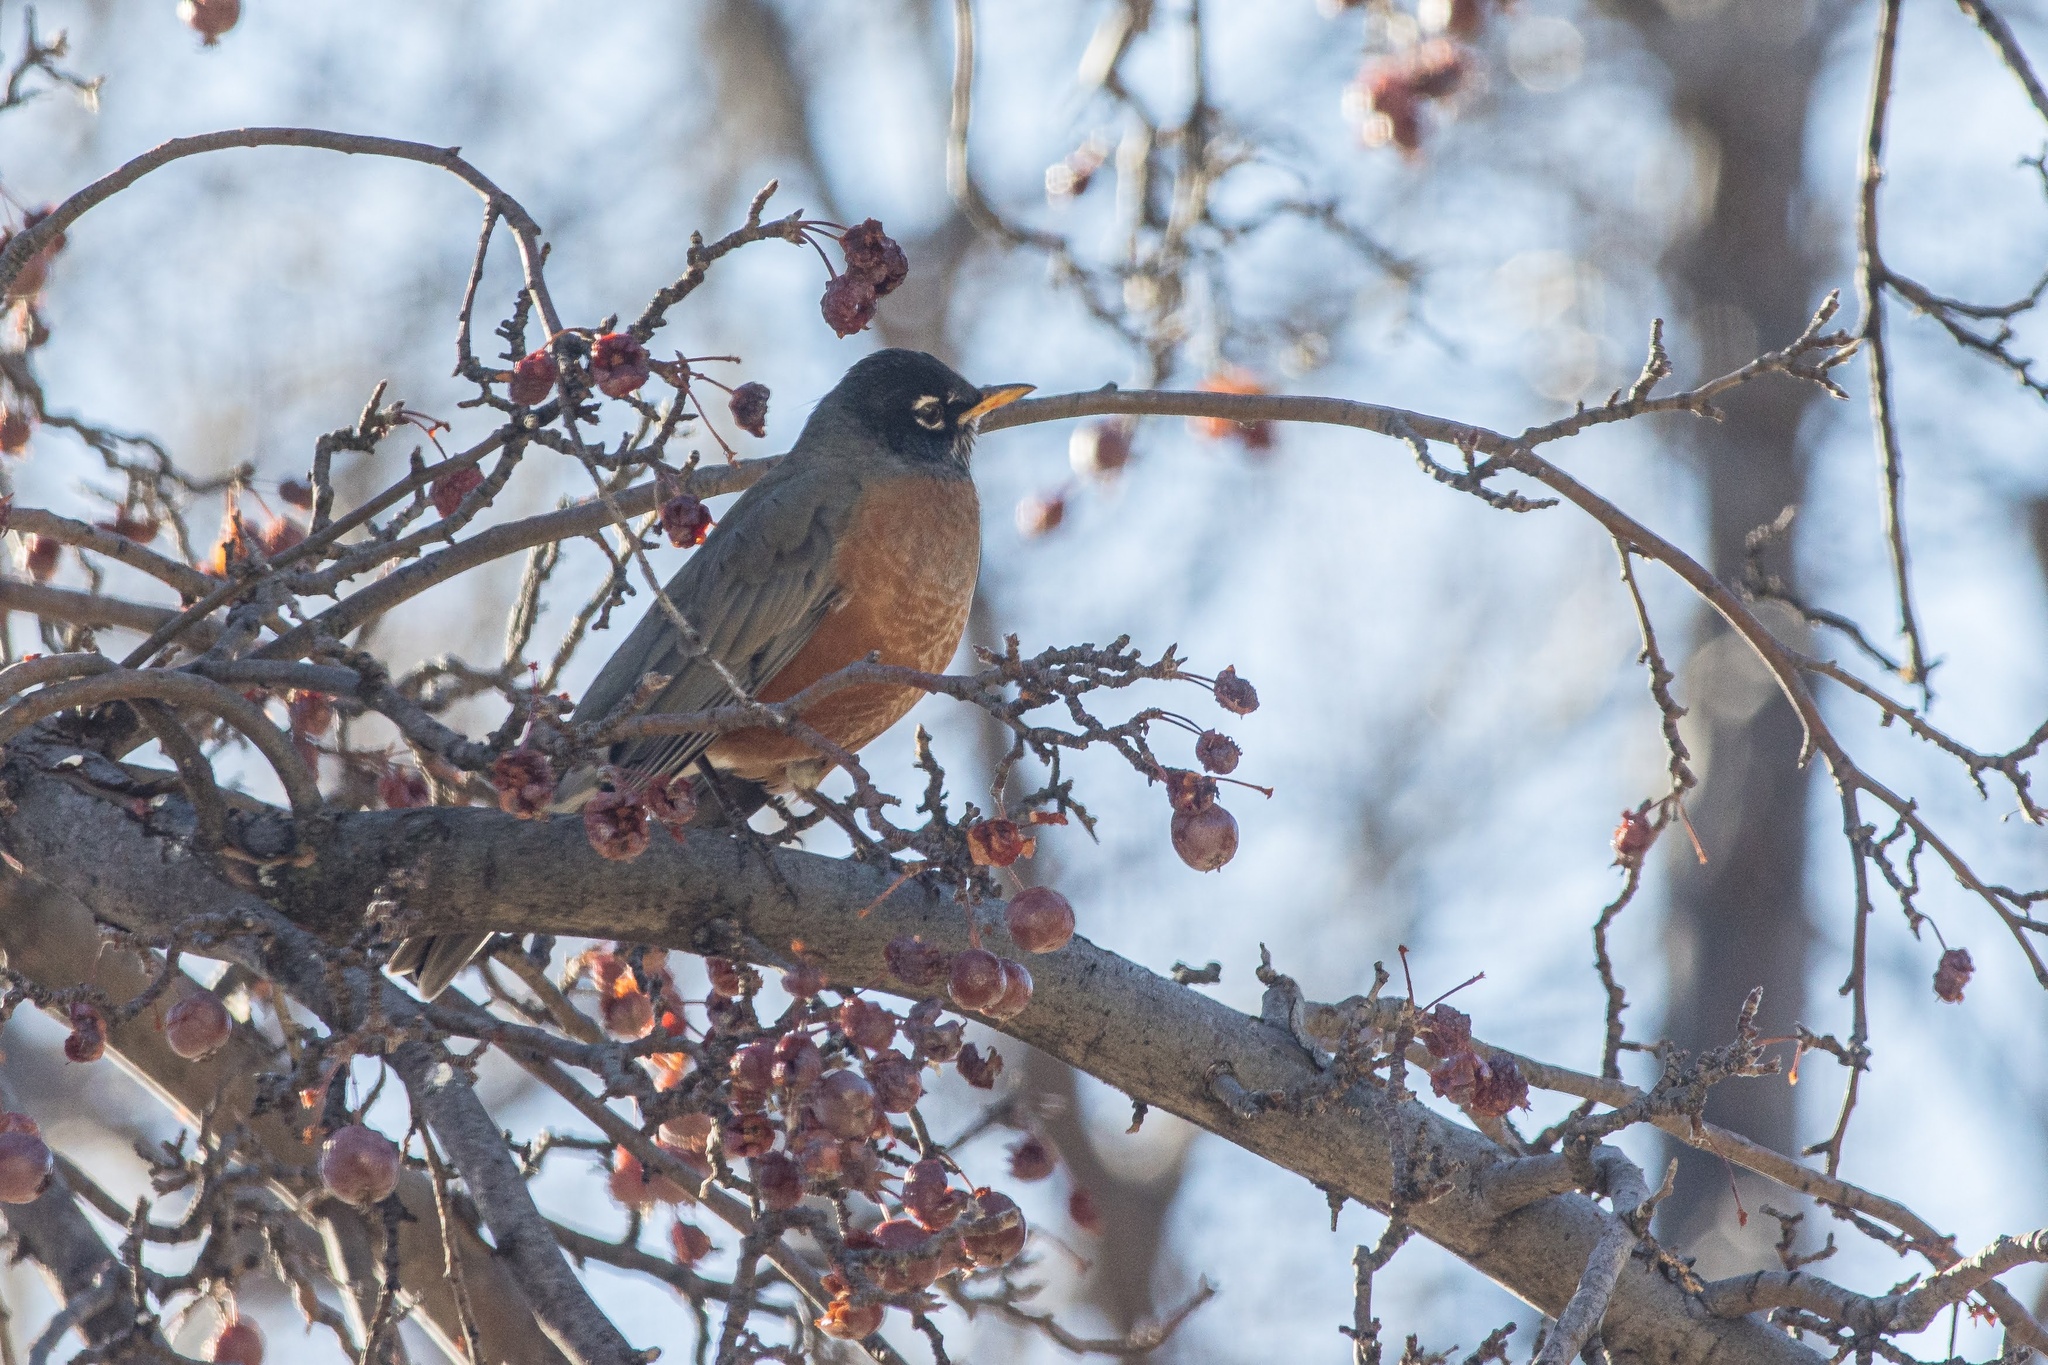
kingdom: Animalia
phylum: Chordata
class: Aves
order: Passeriformes
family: Turdidae
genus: Turdus
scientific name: Turdus migratorius
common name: American robin
